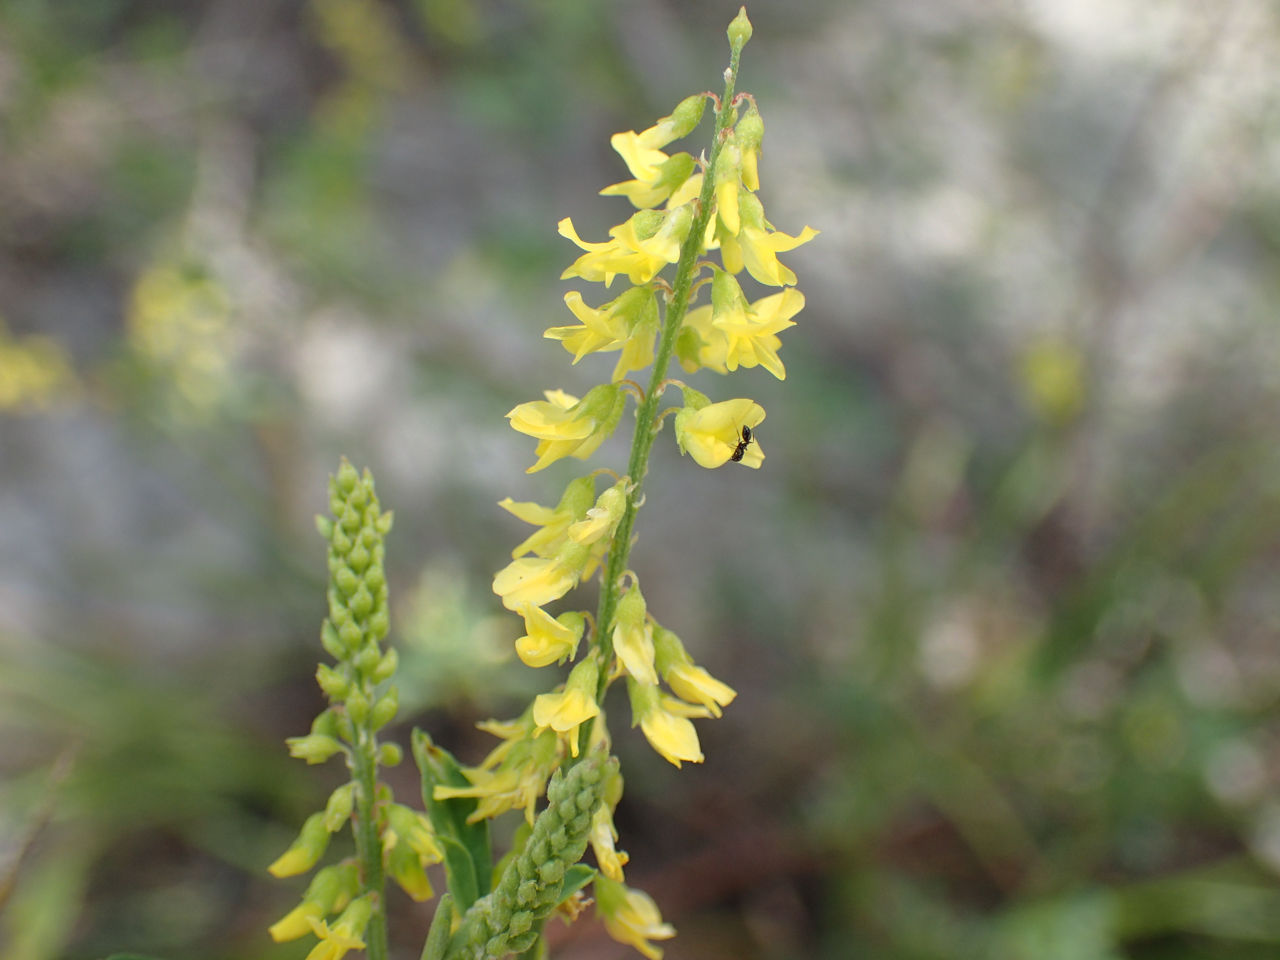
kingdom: Plantae
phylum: Tracheophyta
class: Magnoliopsida
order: Fabales
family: Fabaceae
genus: Melilotus
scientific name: Melilotus officinalis
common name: Sweetclover
